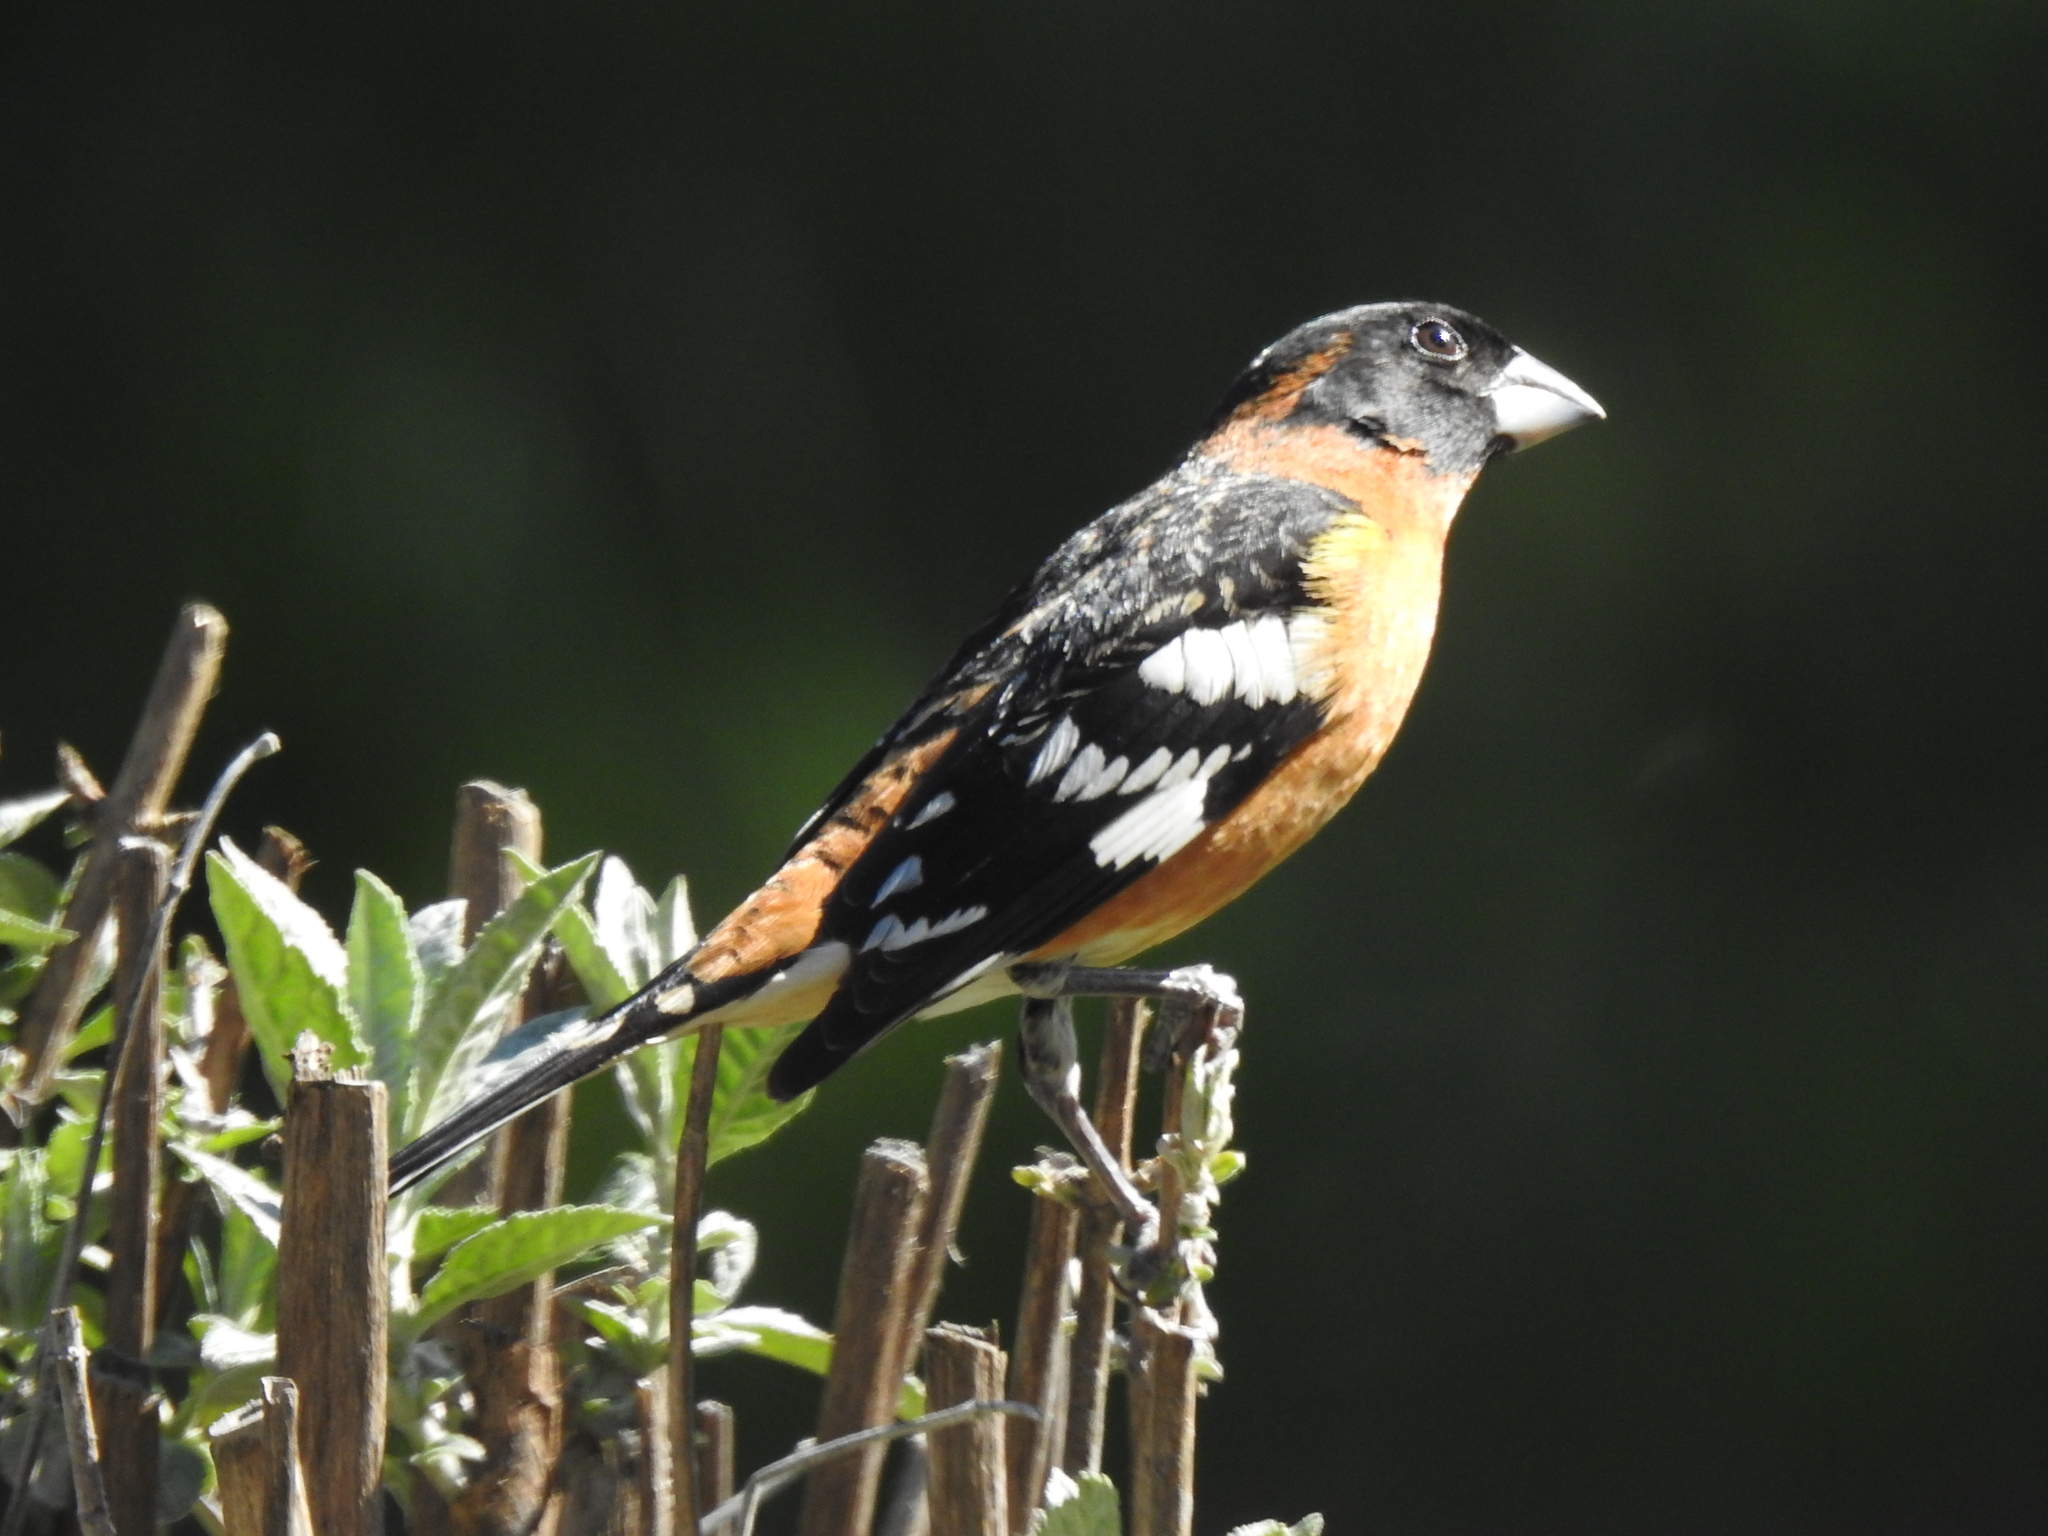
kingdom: Animalia
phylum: Chordata
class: Aves
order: Passeriformes
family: Cardinalidae
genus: Pheucticus
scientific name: Pheucticus melanocephalus
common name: Black-headed grosbeak
